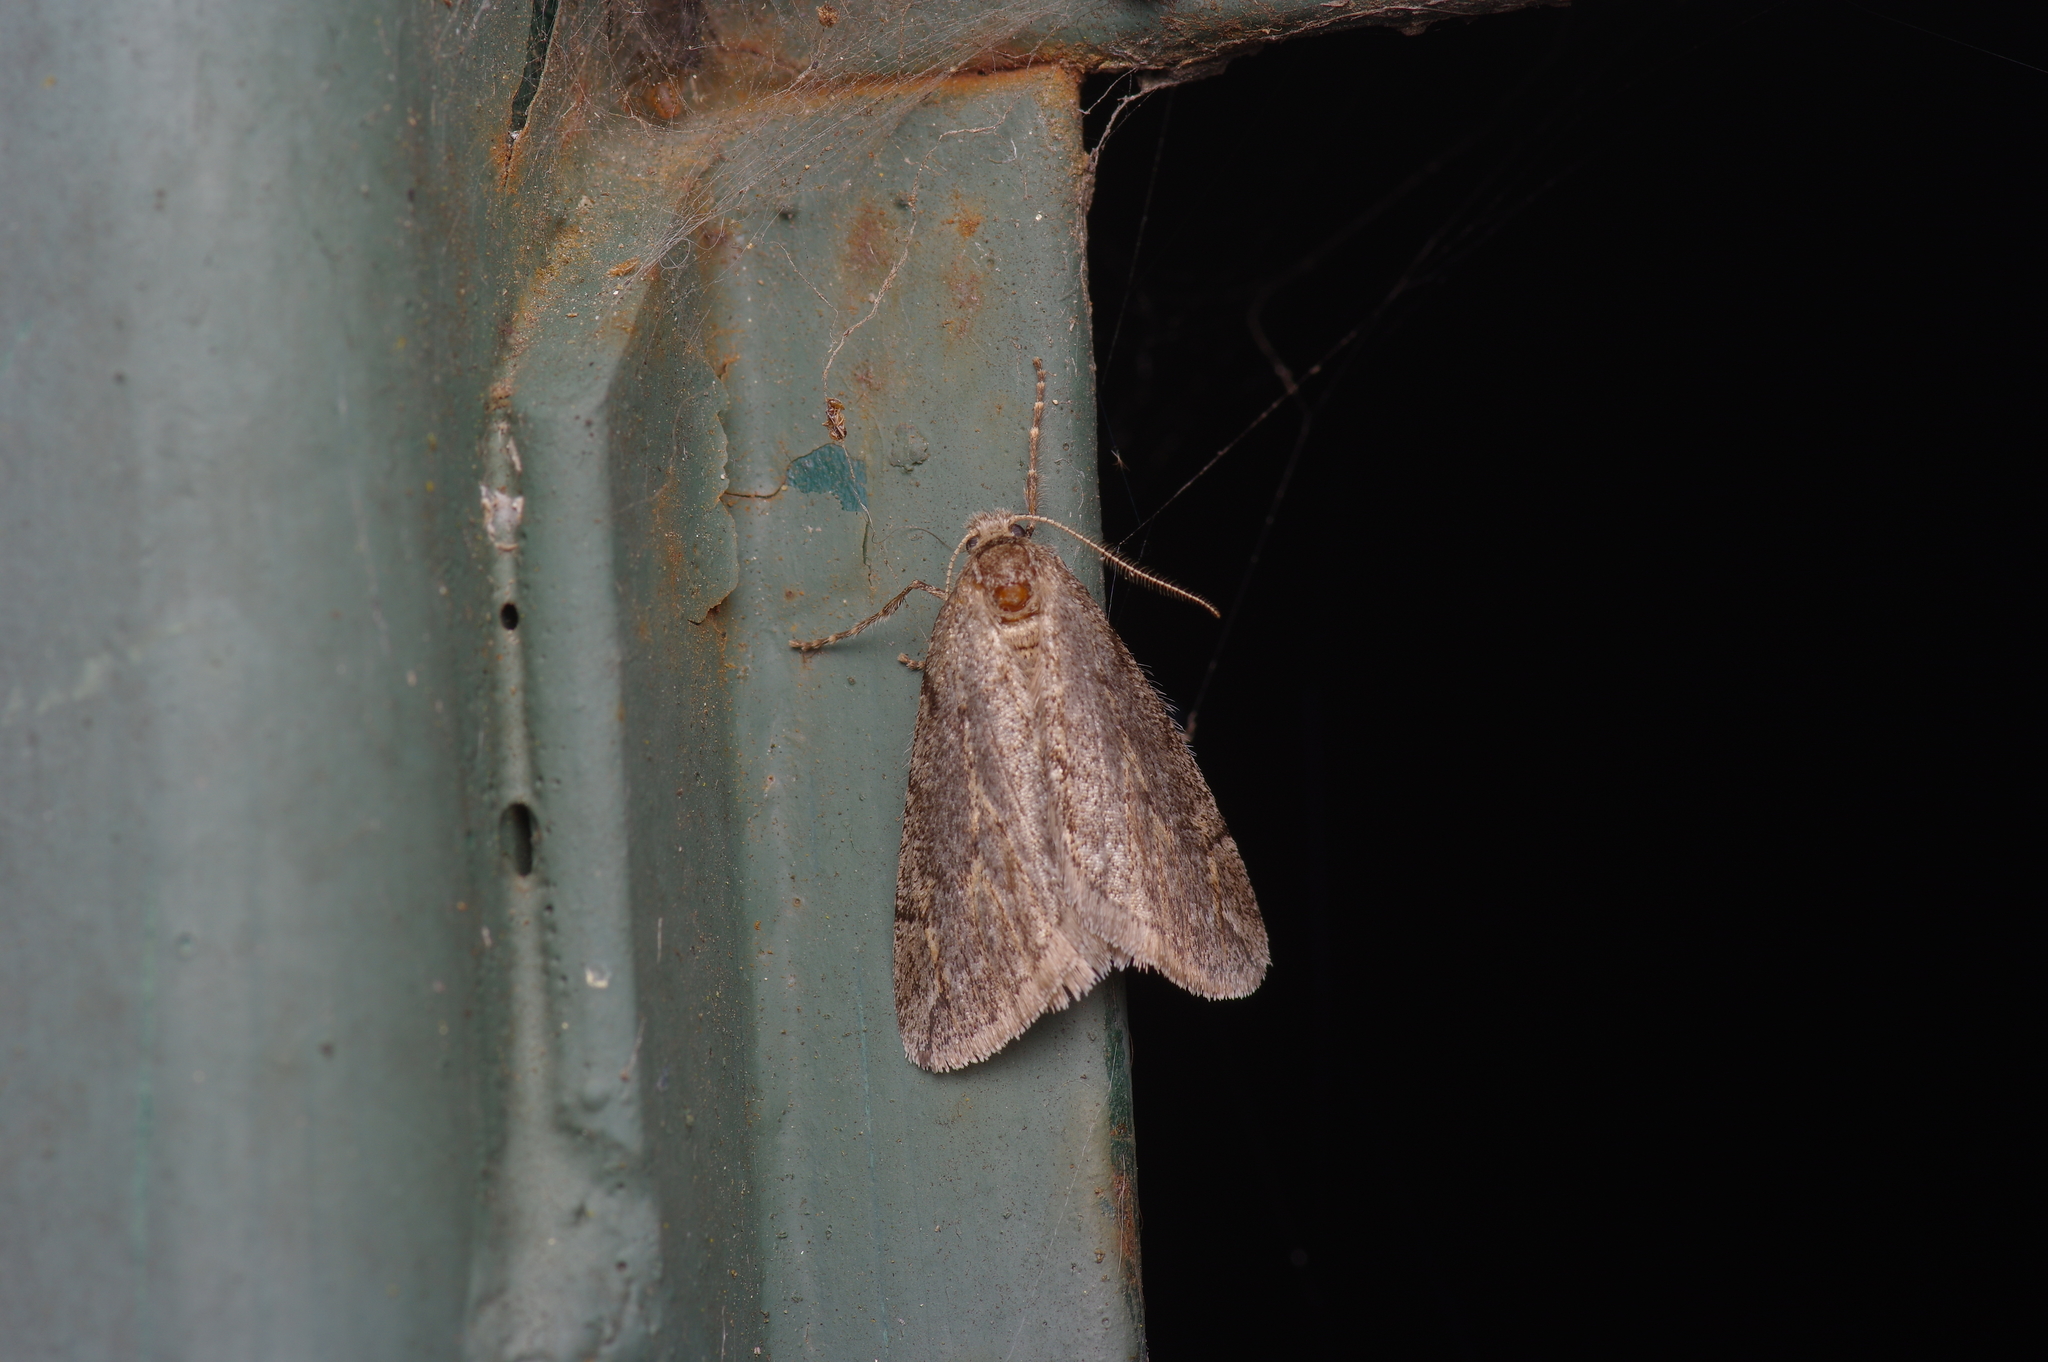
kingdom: Animalia
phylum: Arthropoda
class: Insecta
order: Lepidoptera
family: Geometridae
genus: Paleacrita
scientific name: Paleacrita vernata
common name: Spring cankerworm
